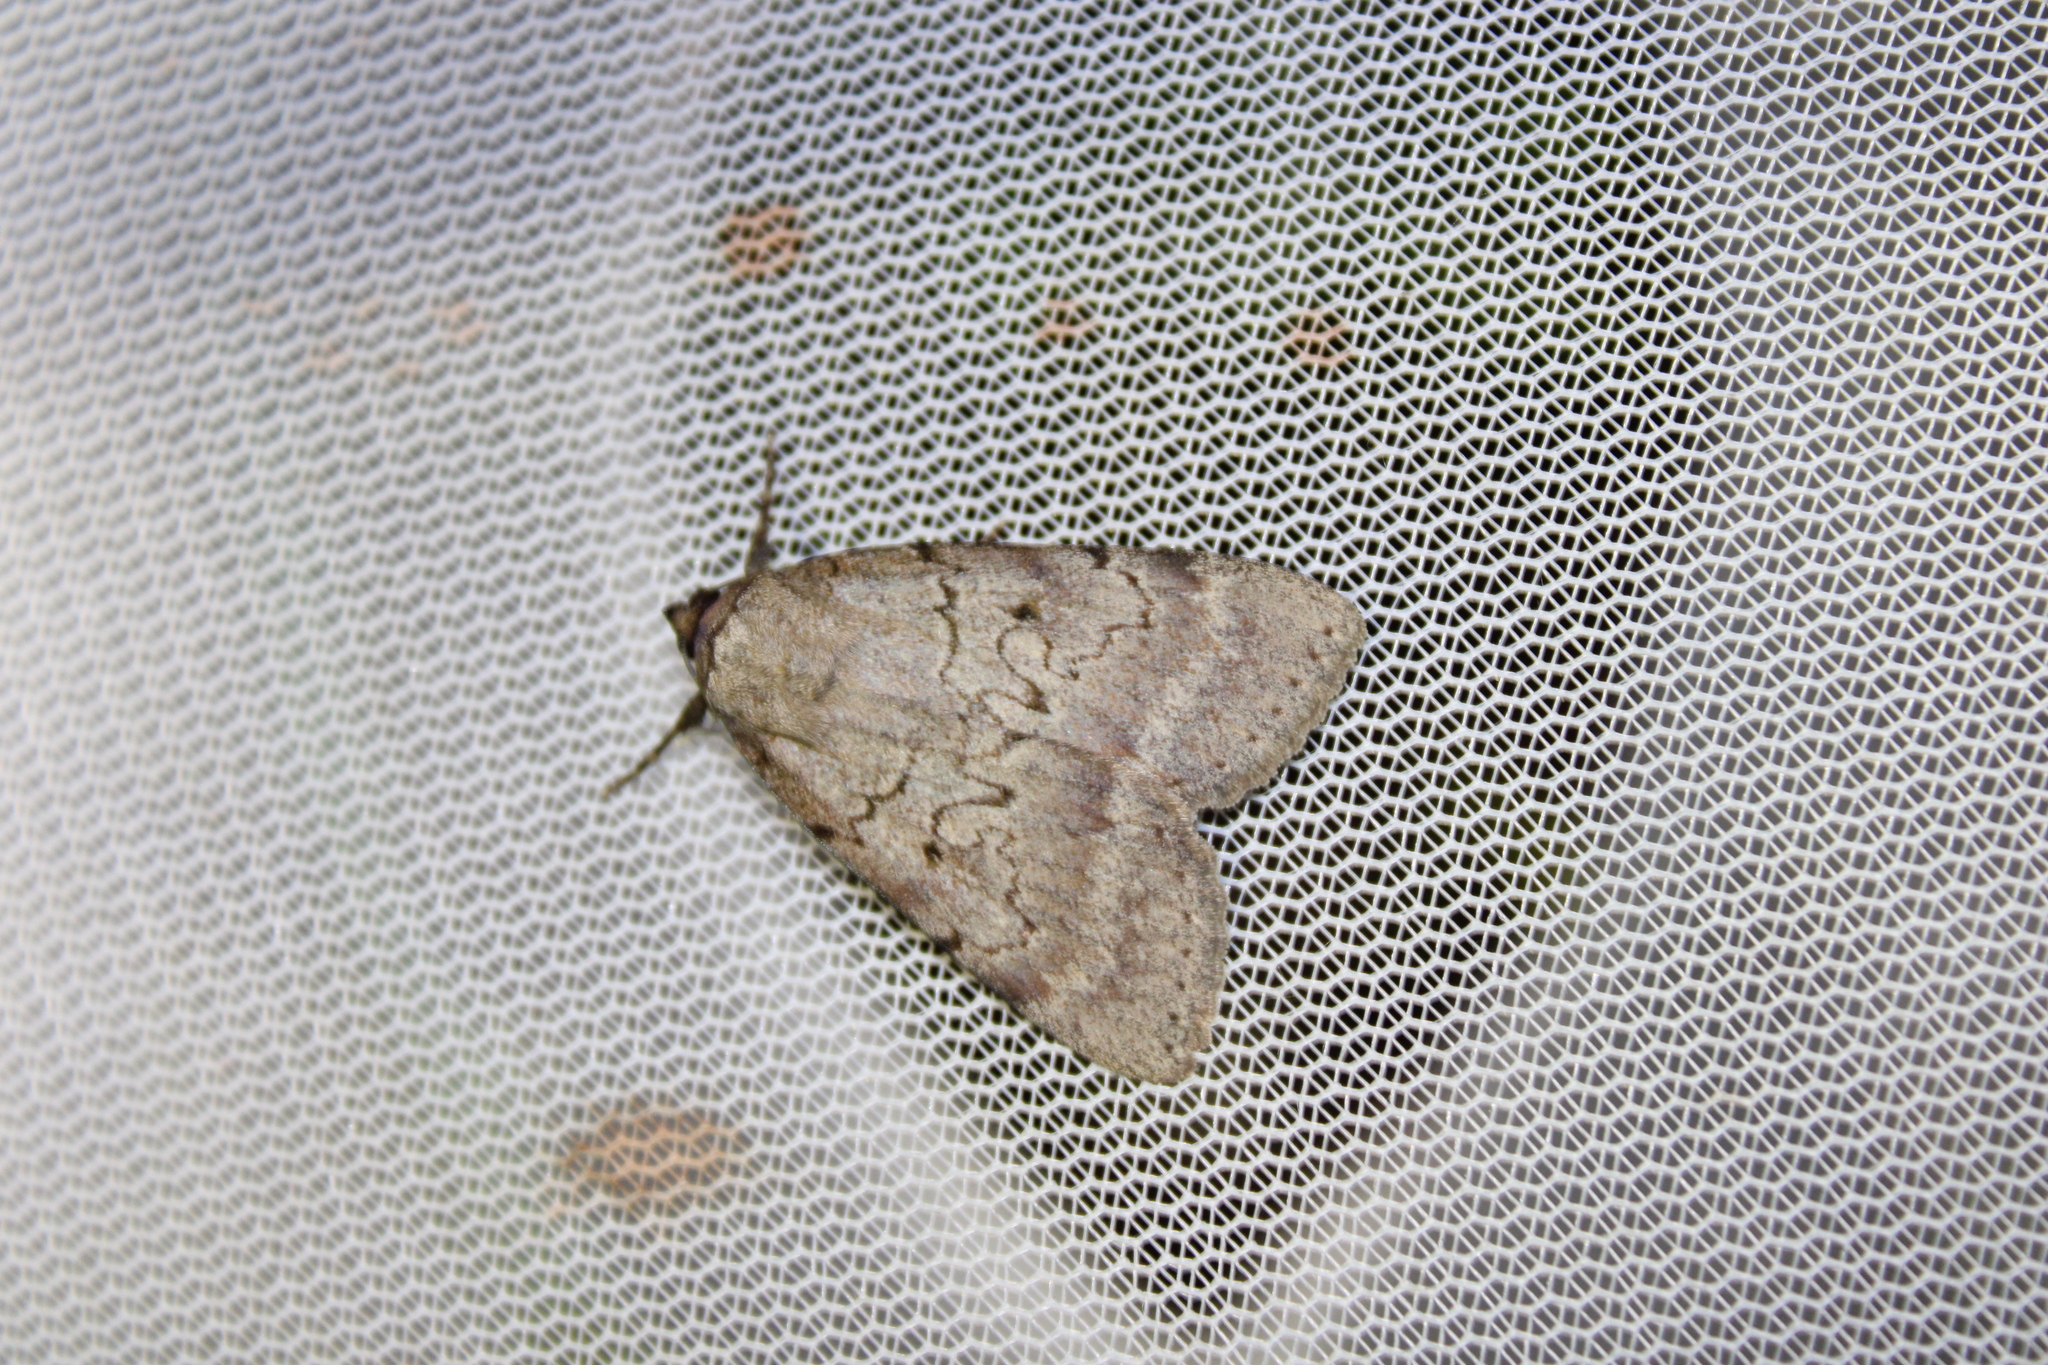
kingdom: Animalia
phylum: Arthropoda
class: Insecta
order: Lepidoptera
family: Erebidae
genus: Catocala
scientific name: Catocala serena
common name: Serene underwing
